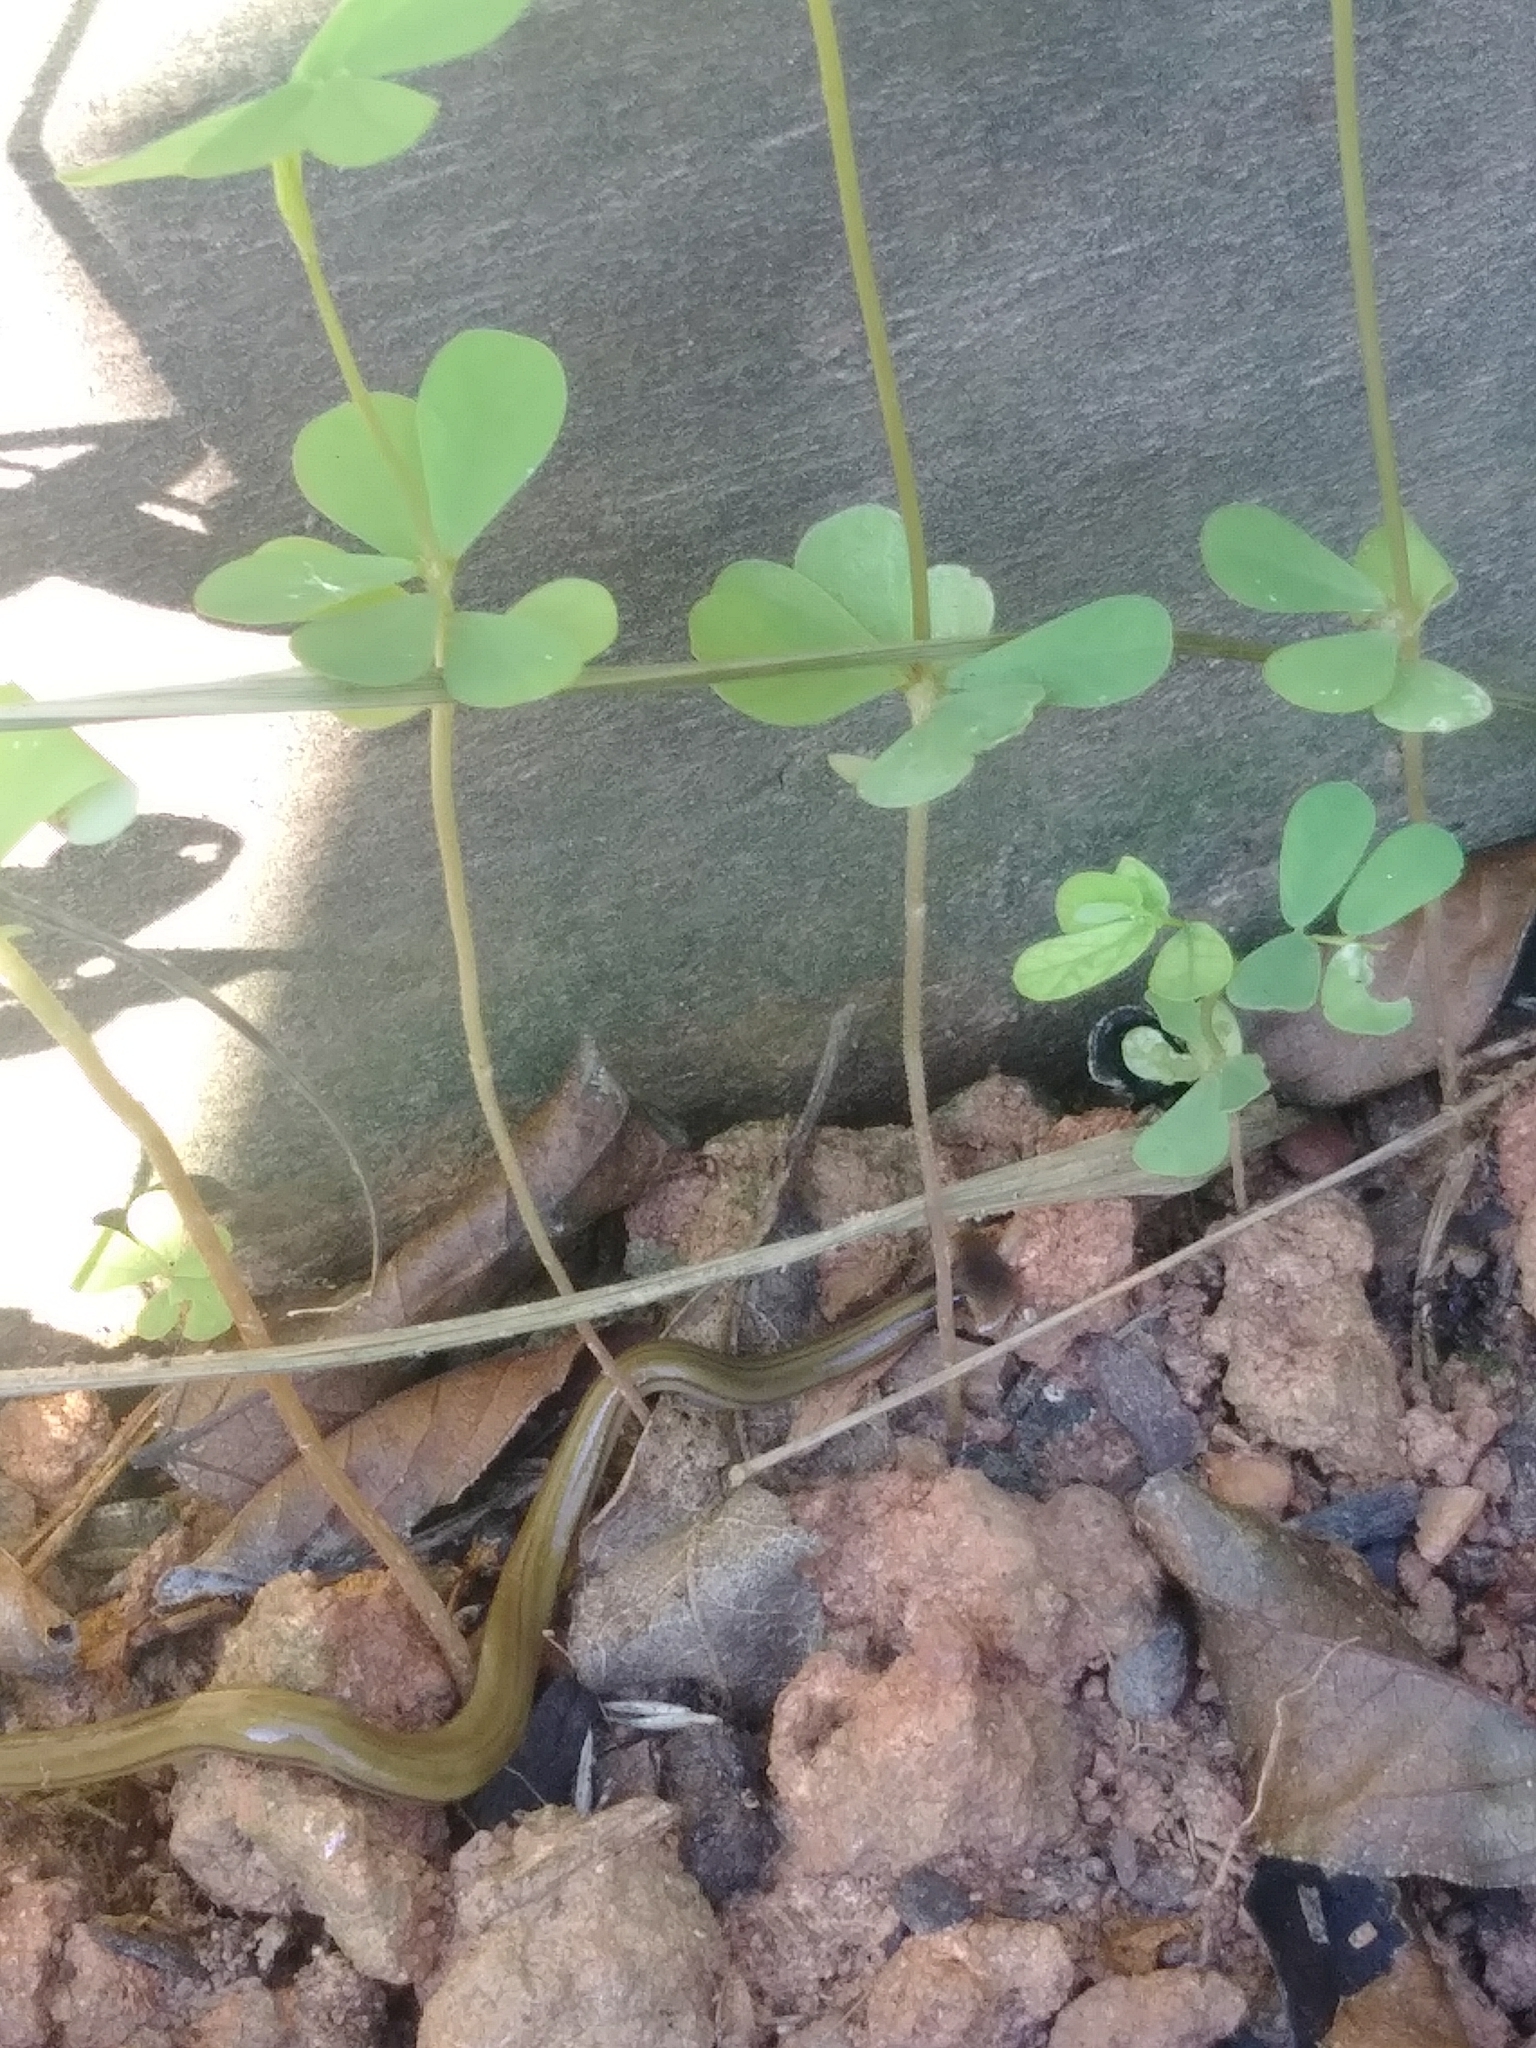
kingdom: Animalia
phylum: Platyhelminthes
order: Tricladida
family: Geoplanidae
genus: Bipalium
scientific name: Bipalium kewense
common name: Hammerhead flatworm
